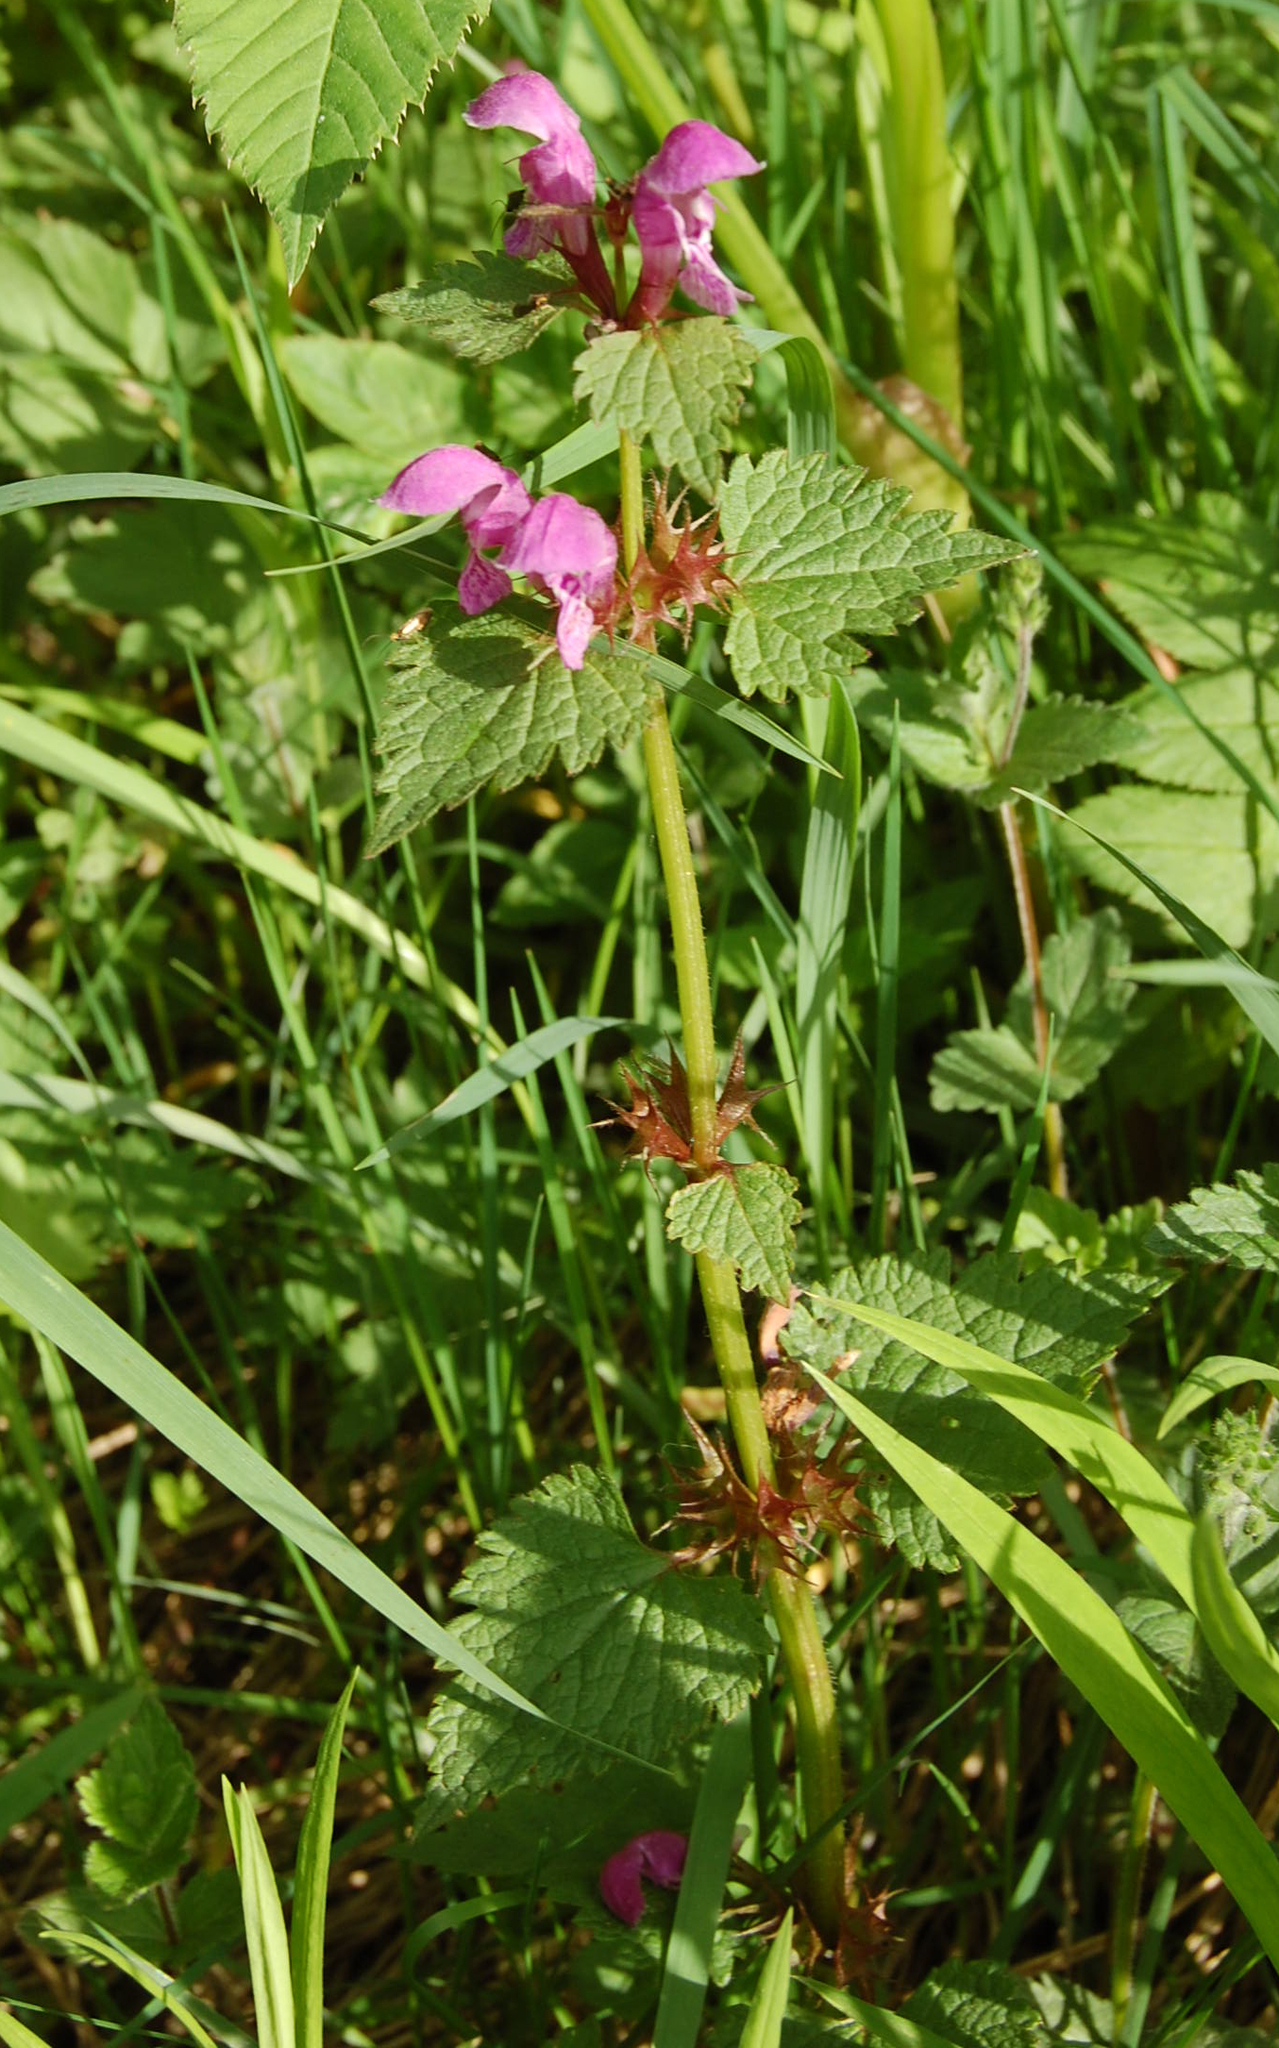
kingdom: Plantae
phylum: Tracheophyta
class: Magnoliopsida
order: Lamiales
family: Lamiaceae
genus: Lamium
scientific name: Lamium maculatum
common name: Spotted dead-nettle
